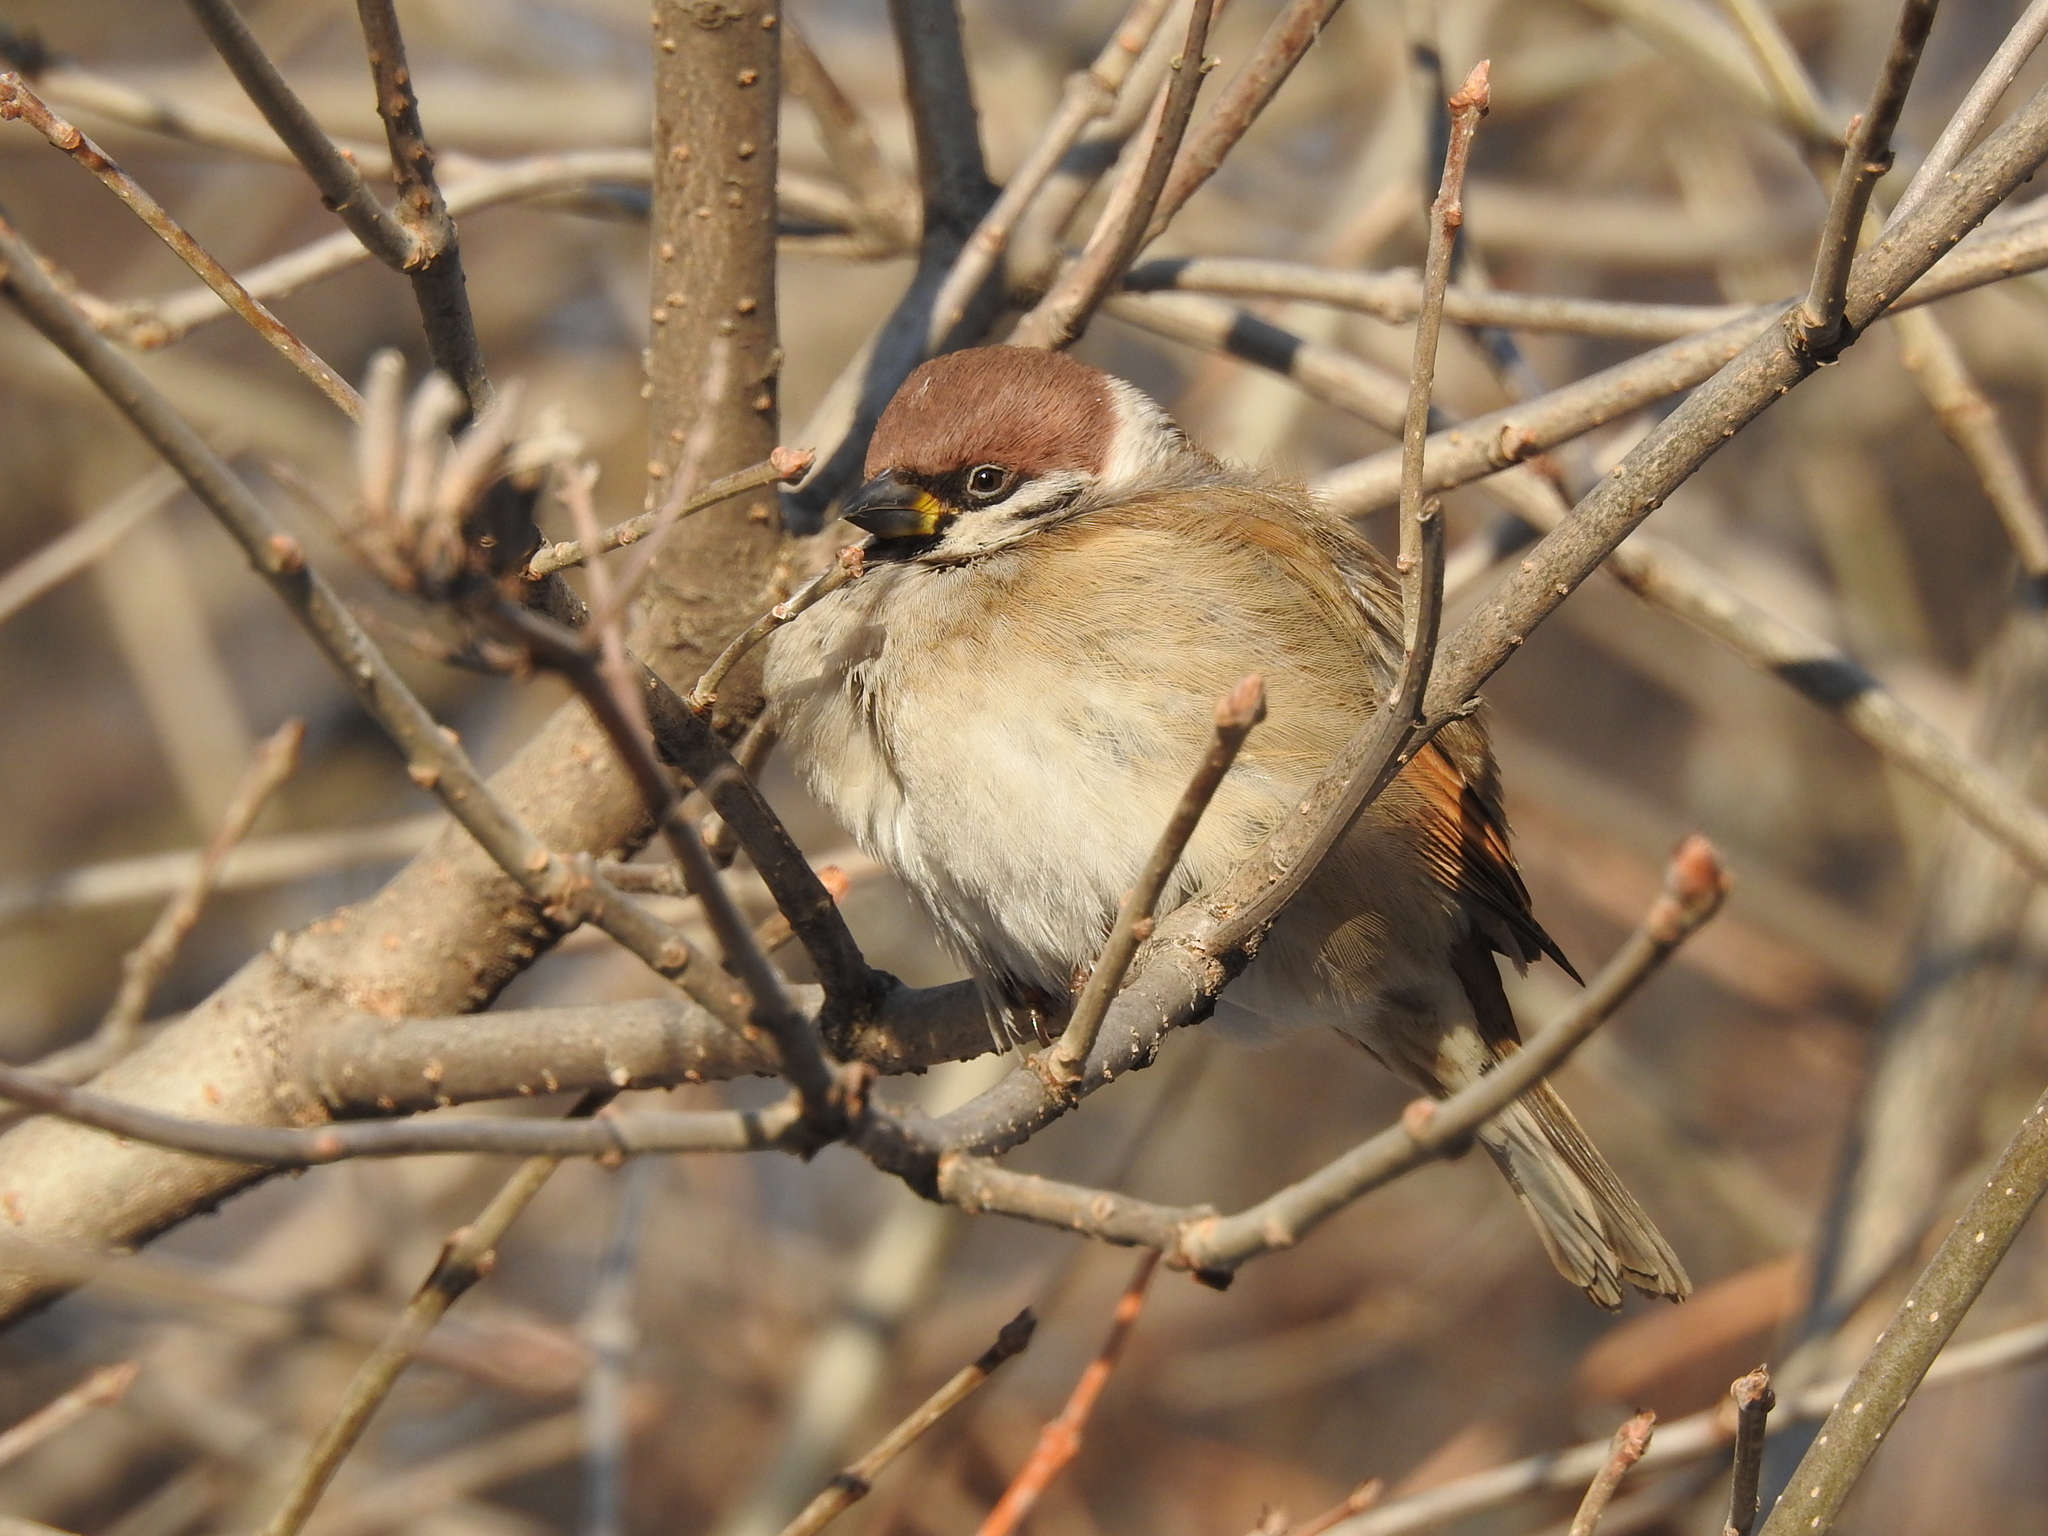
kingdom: Animalia
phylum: Chordata
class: Aves
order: Passeriformes
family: Passeridae
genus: Passer
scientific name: Passer montanus
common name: Eurasian tree sparrow
